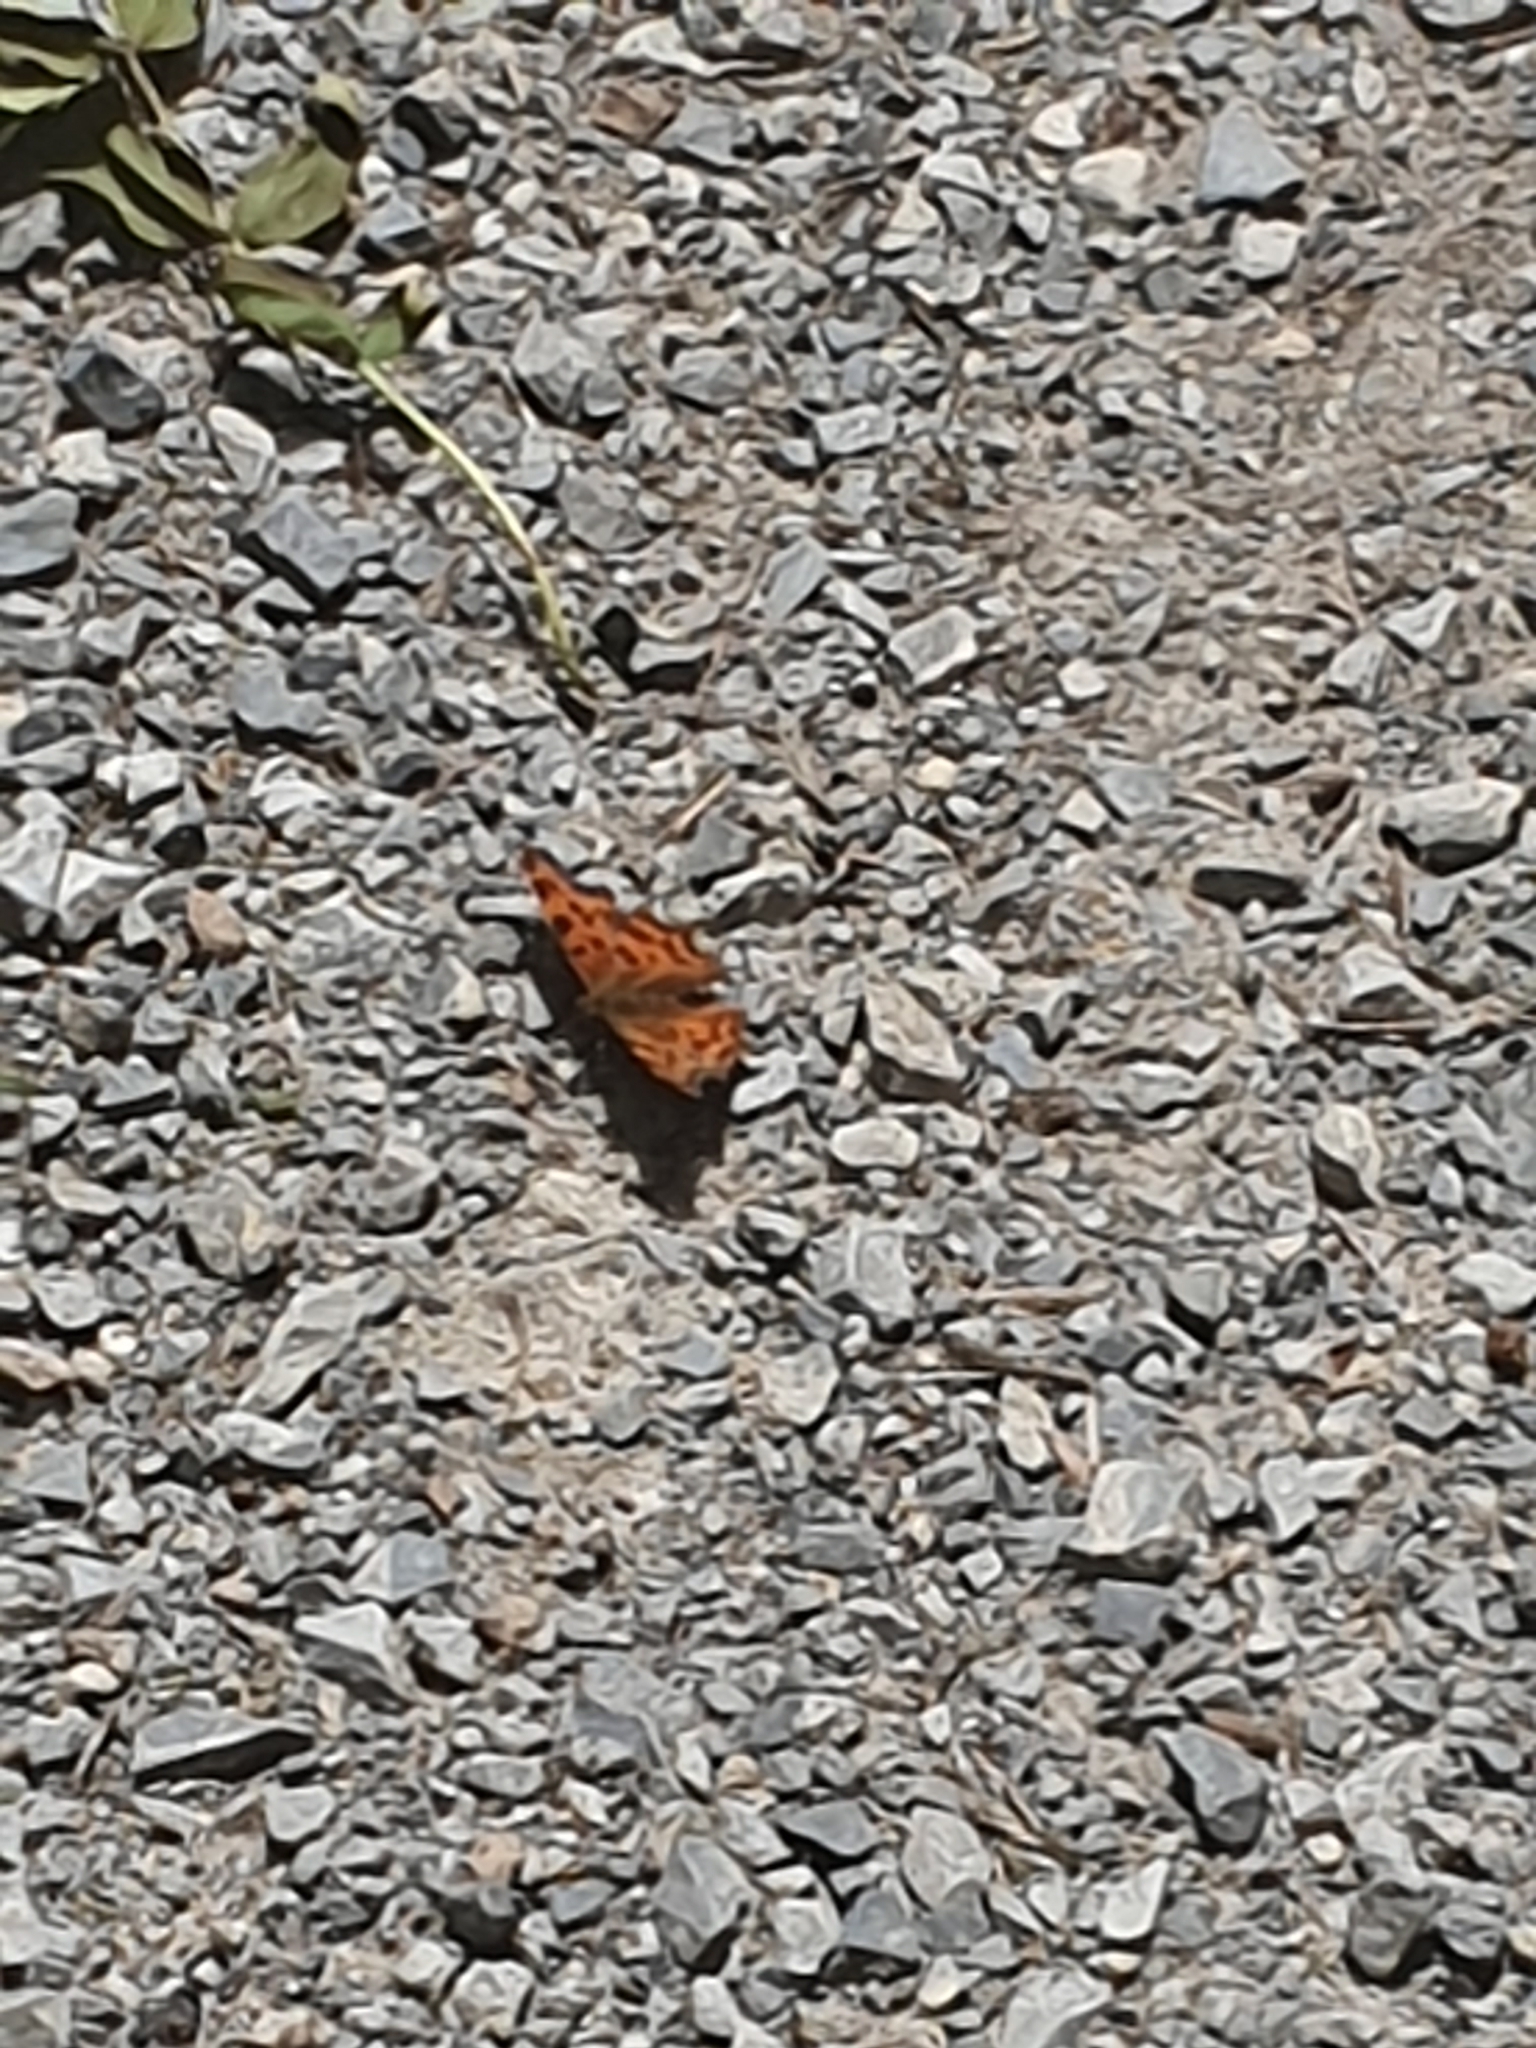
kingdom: Animalia
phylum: Arthropoda
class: Insecta
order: Lepidoptera
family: Nymphalidae
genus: Polygonia
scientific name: Polygonia c-album
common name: Comma
